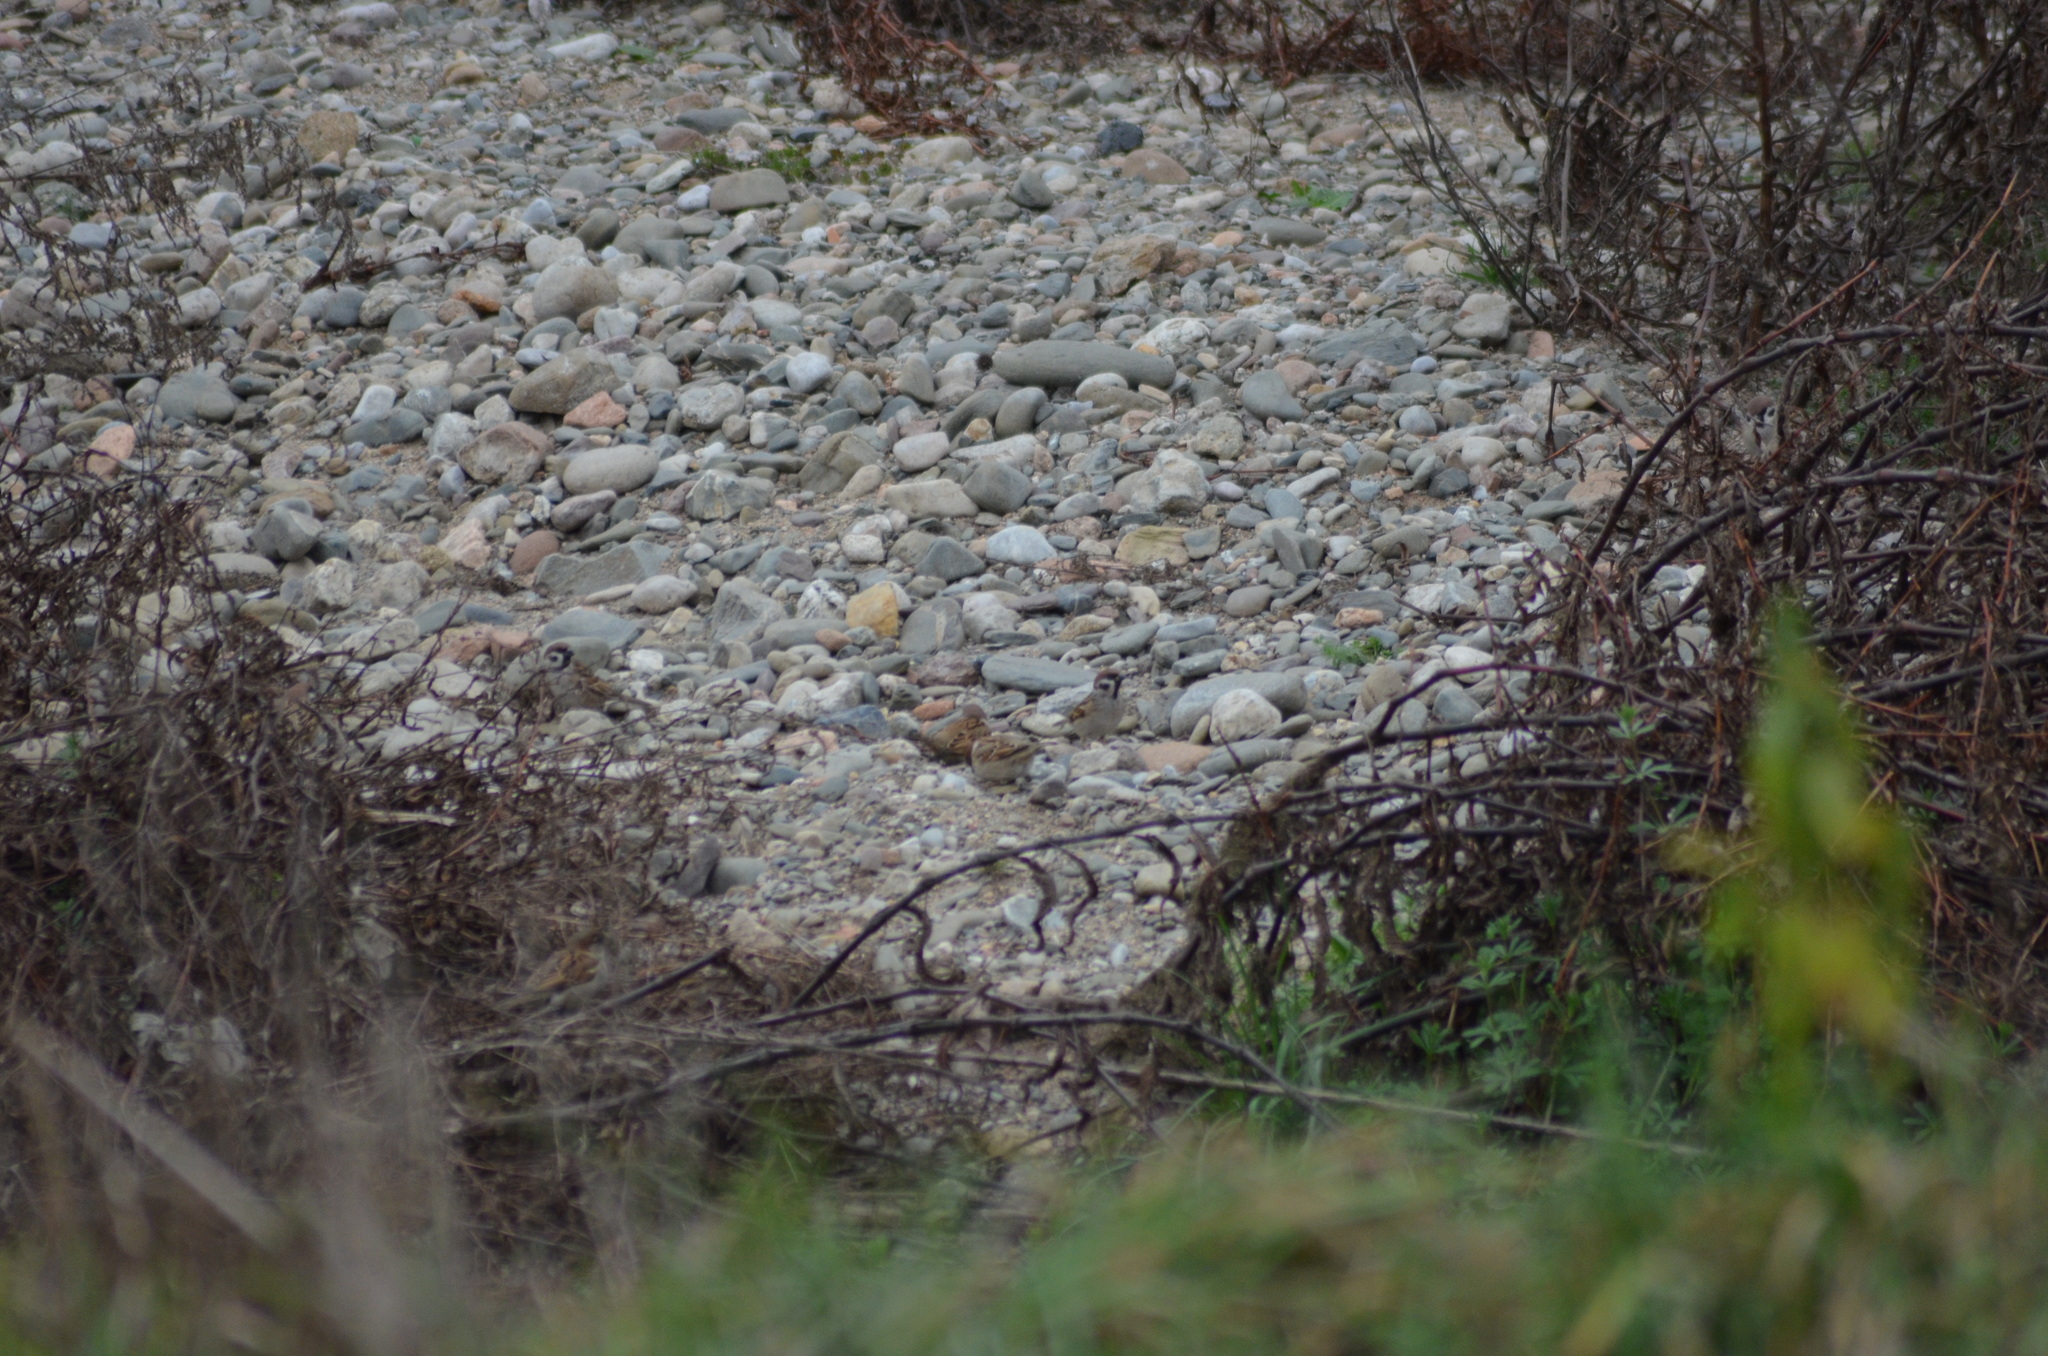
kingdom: Animalia
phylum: Chordata
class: Aves
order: Passeriformes
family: Passeridae
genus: Passer
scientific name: Passer montanus
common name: Eurasian tree sparrow
